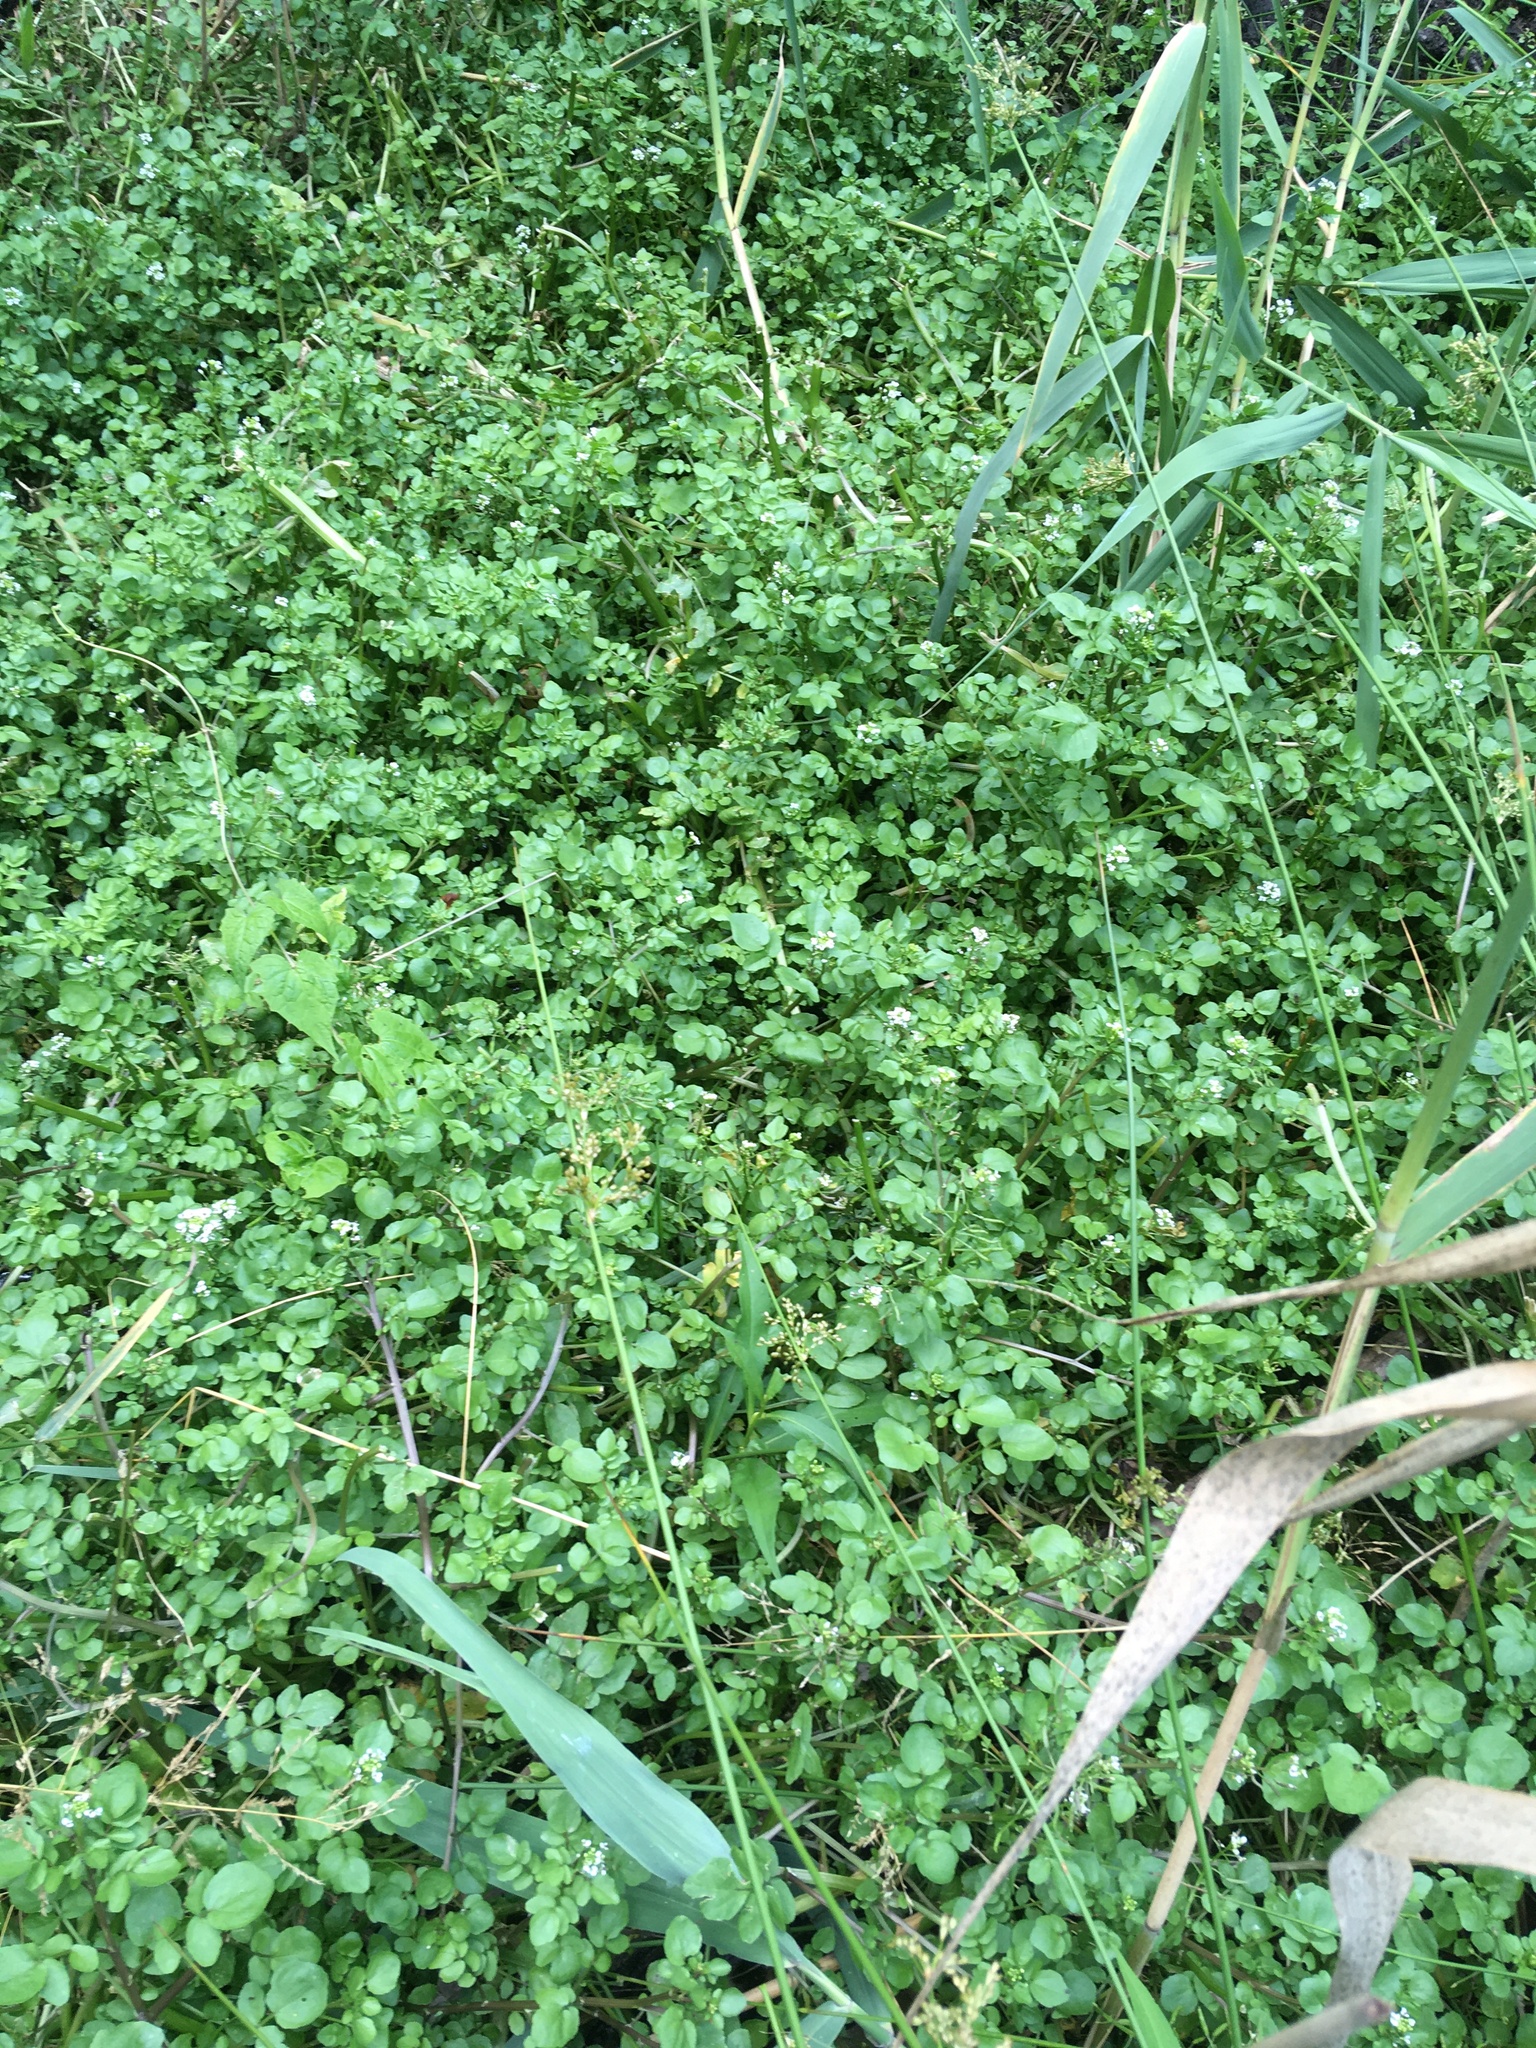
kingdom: Plantae
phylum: Tracheophyta
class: Magnoliopsida
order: Brassicales
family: Brassicaceae
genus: Nasturtium
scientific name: Nasturtium officinale
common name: Watercress
